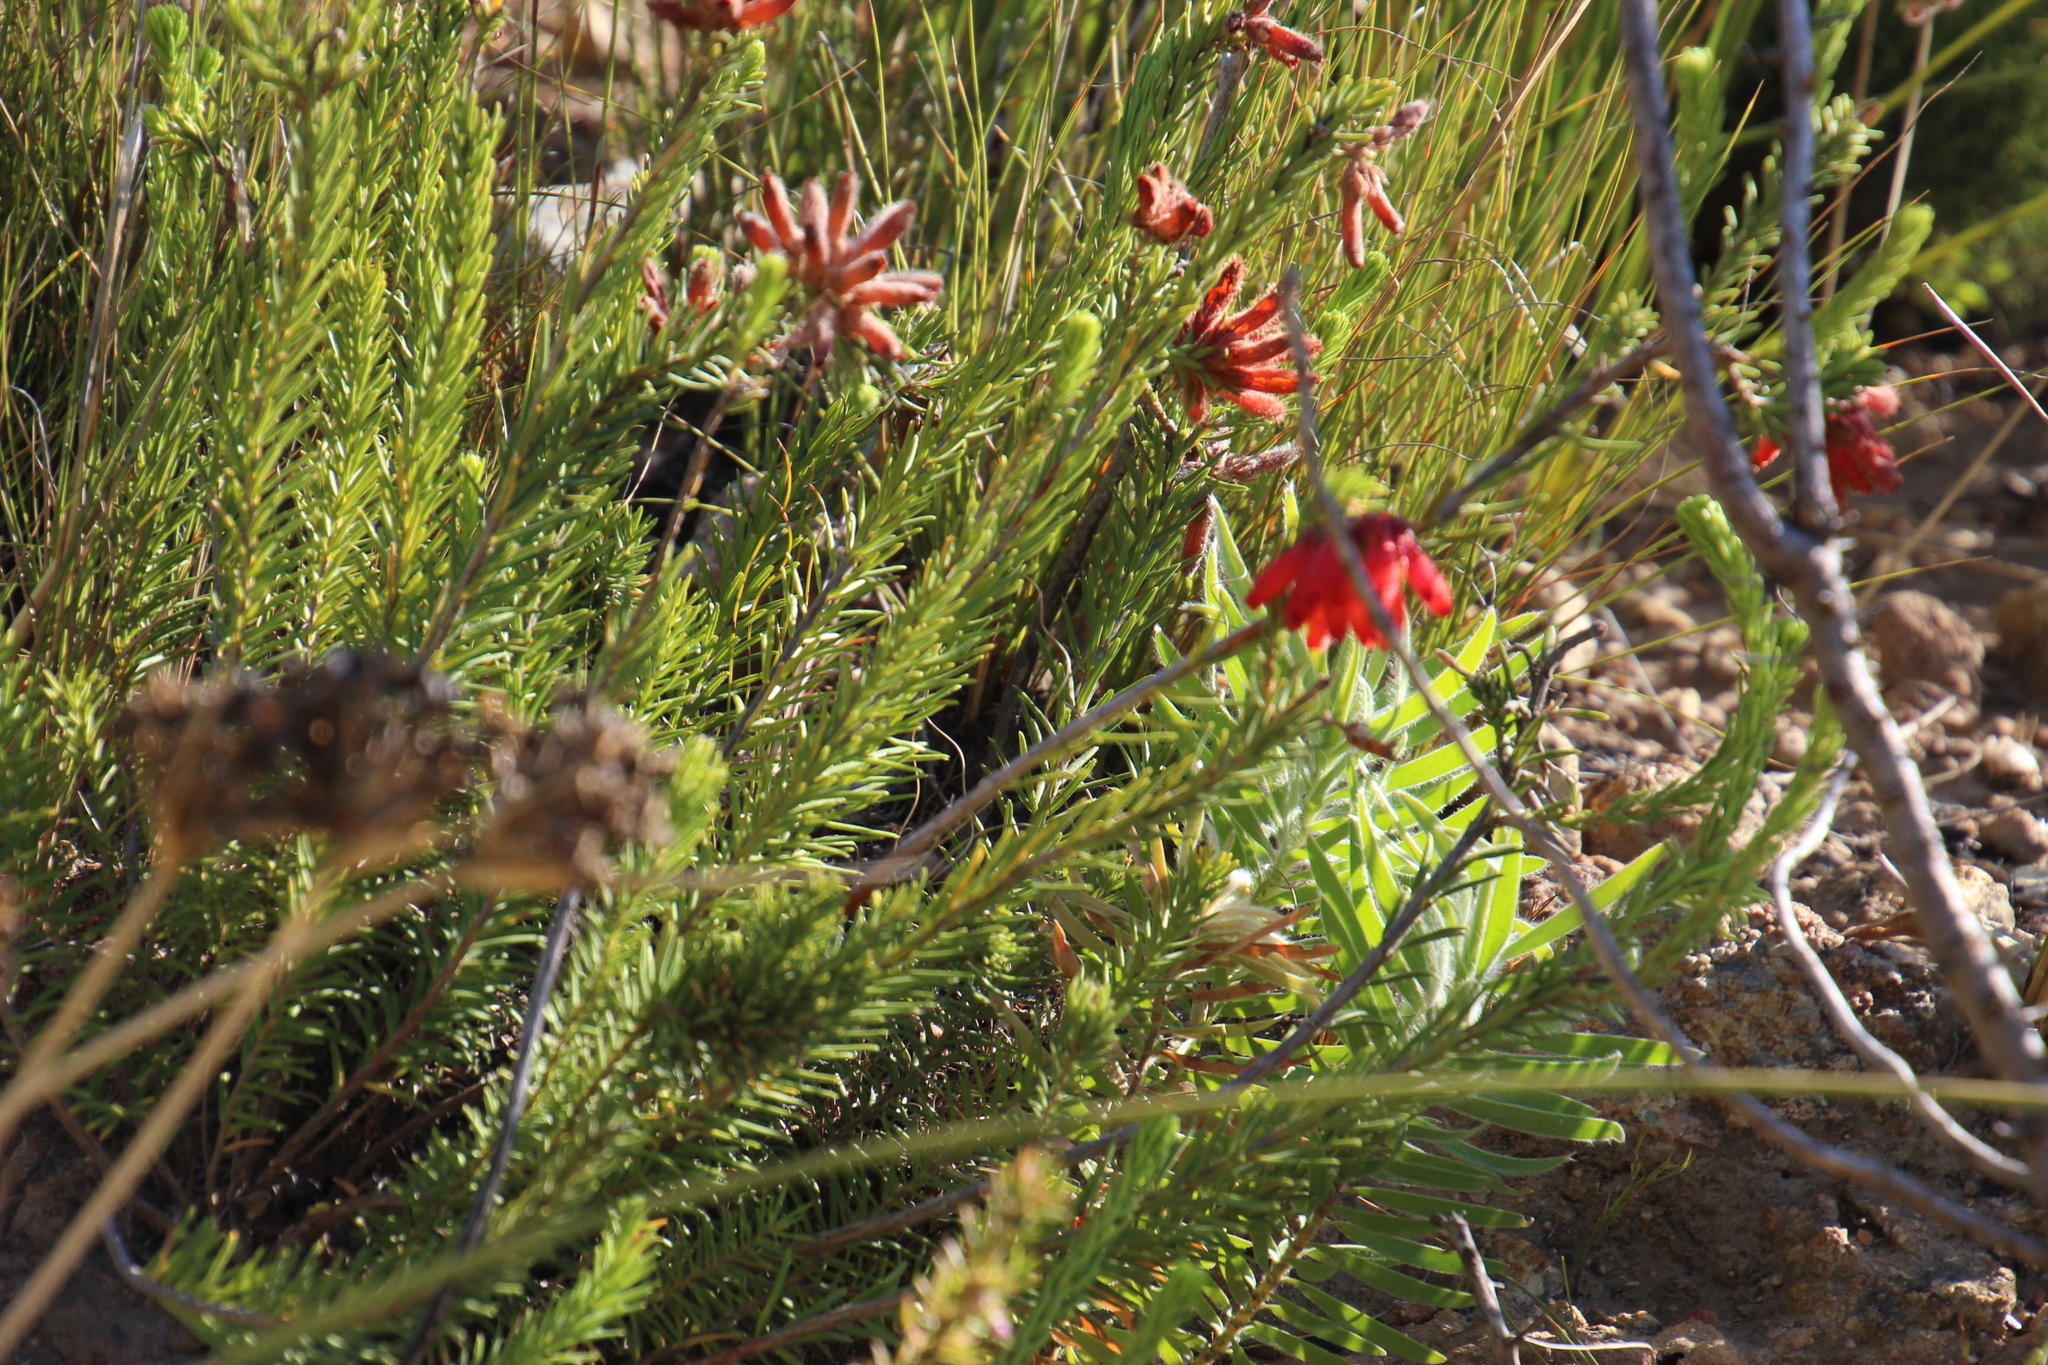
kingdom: Plantae
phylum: Tracheophyta
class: Magnoliopsida
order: Ericales
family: Ericaceae
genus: Erica
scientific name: Erica cerinthoides
